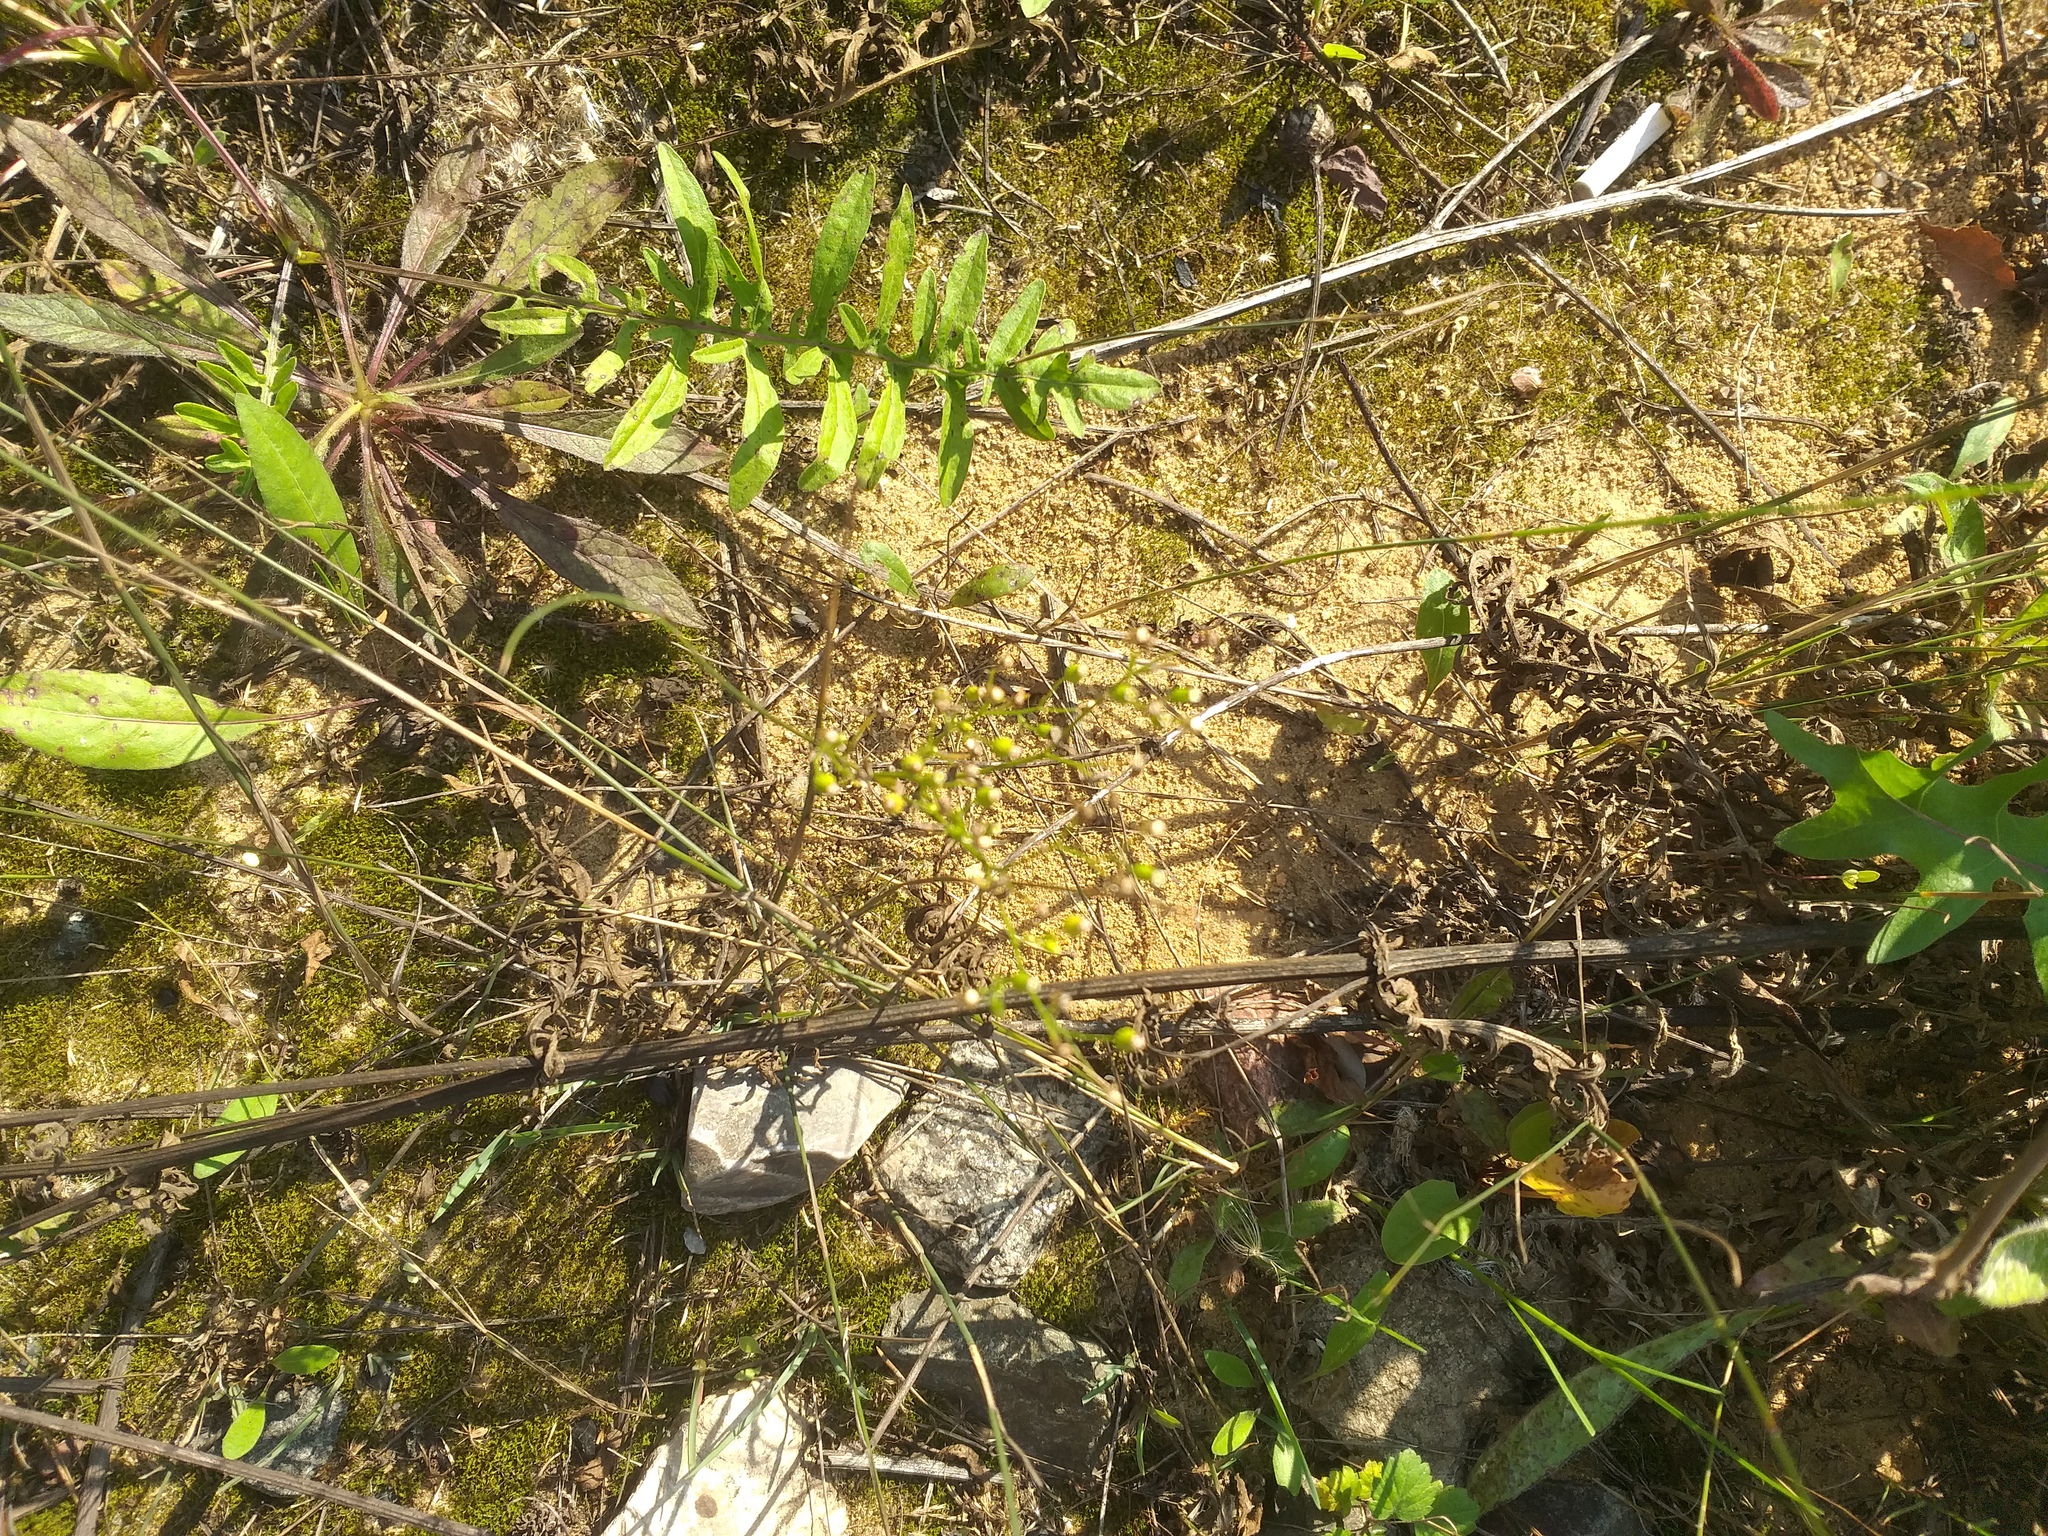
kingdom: Plantae
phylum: Tracheophyta
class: Magnoliopsida
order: Asterales
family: Asteraceae
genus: Erigeron
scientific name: Erigeron canadensis
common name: Canadian fleabane
